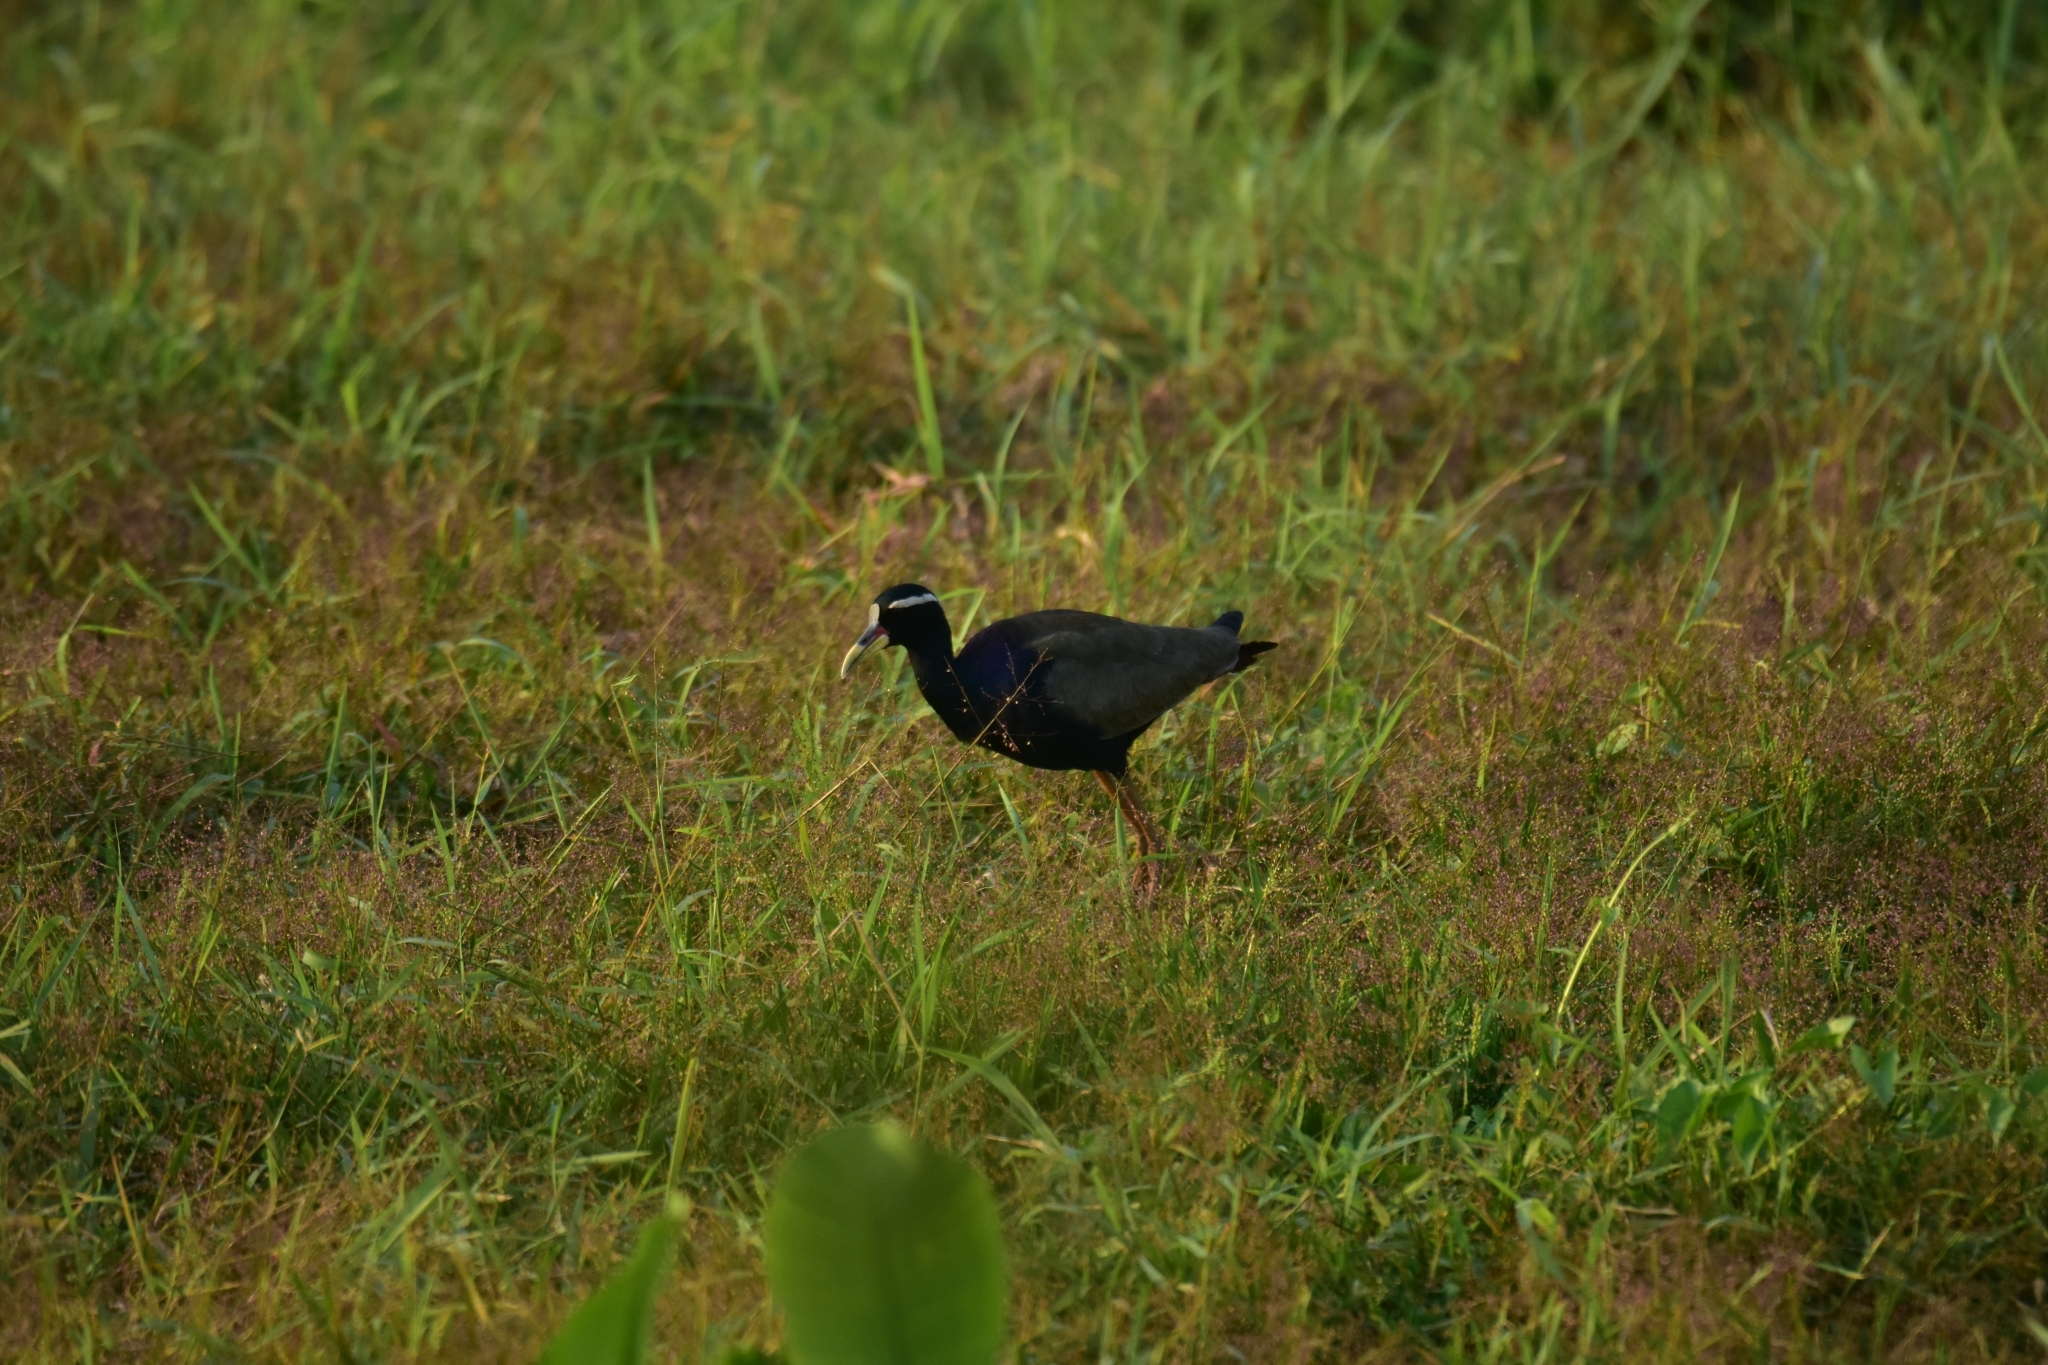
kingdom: Animalia
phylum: Chordata
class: Aves
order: Charadriiformes
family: Jacanidae
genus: Metopidius
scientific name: Metopidius indicus
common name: Bronze-winged jacana
